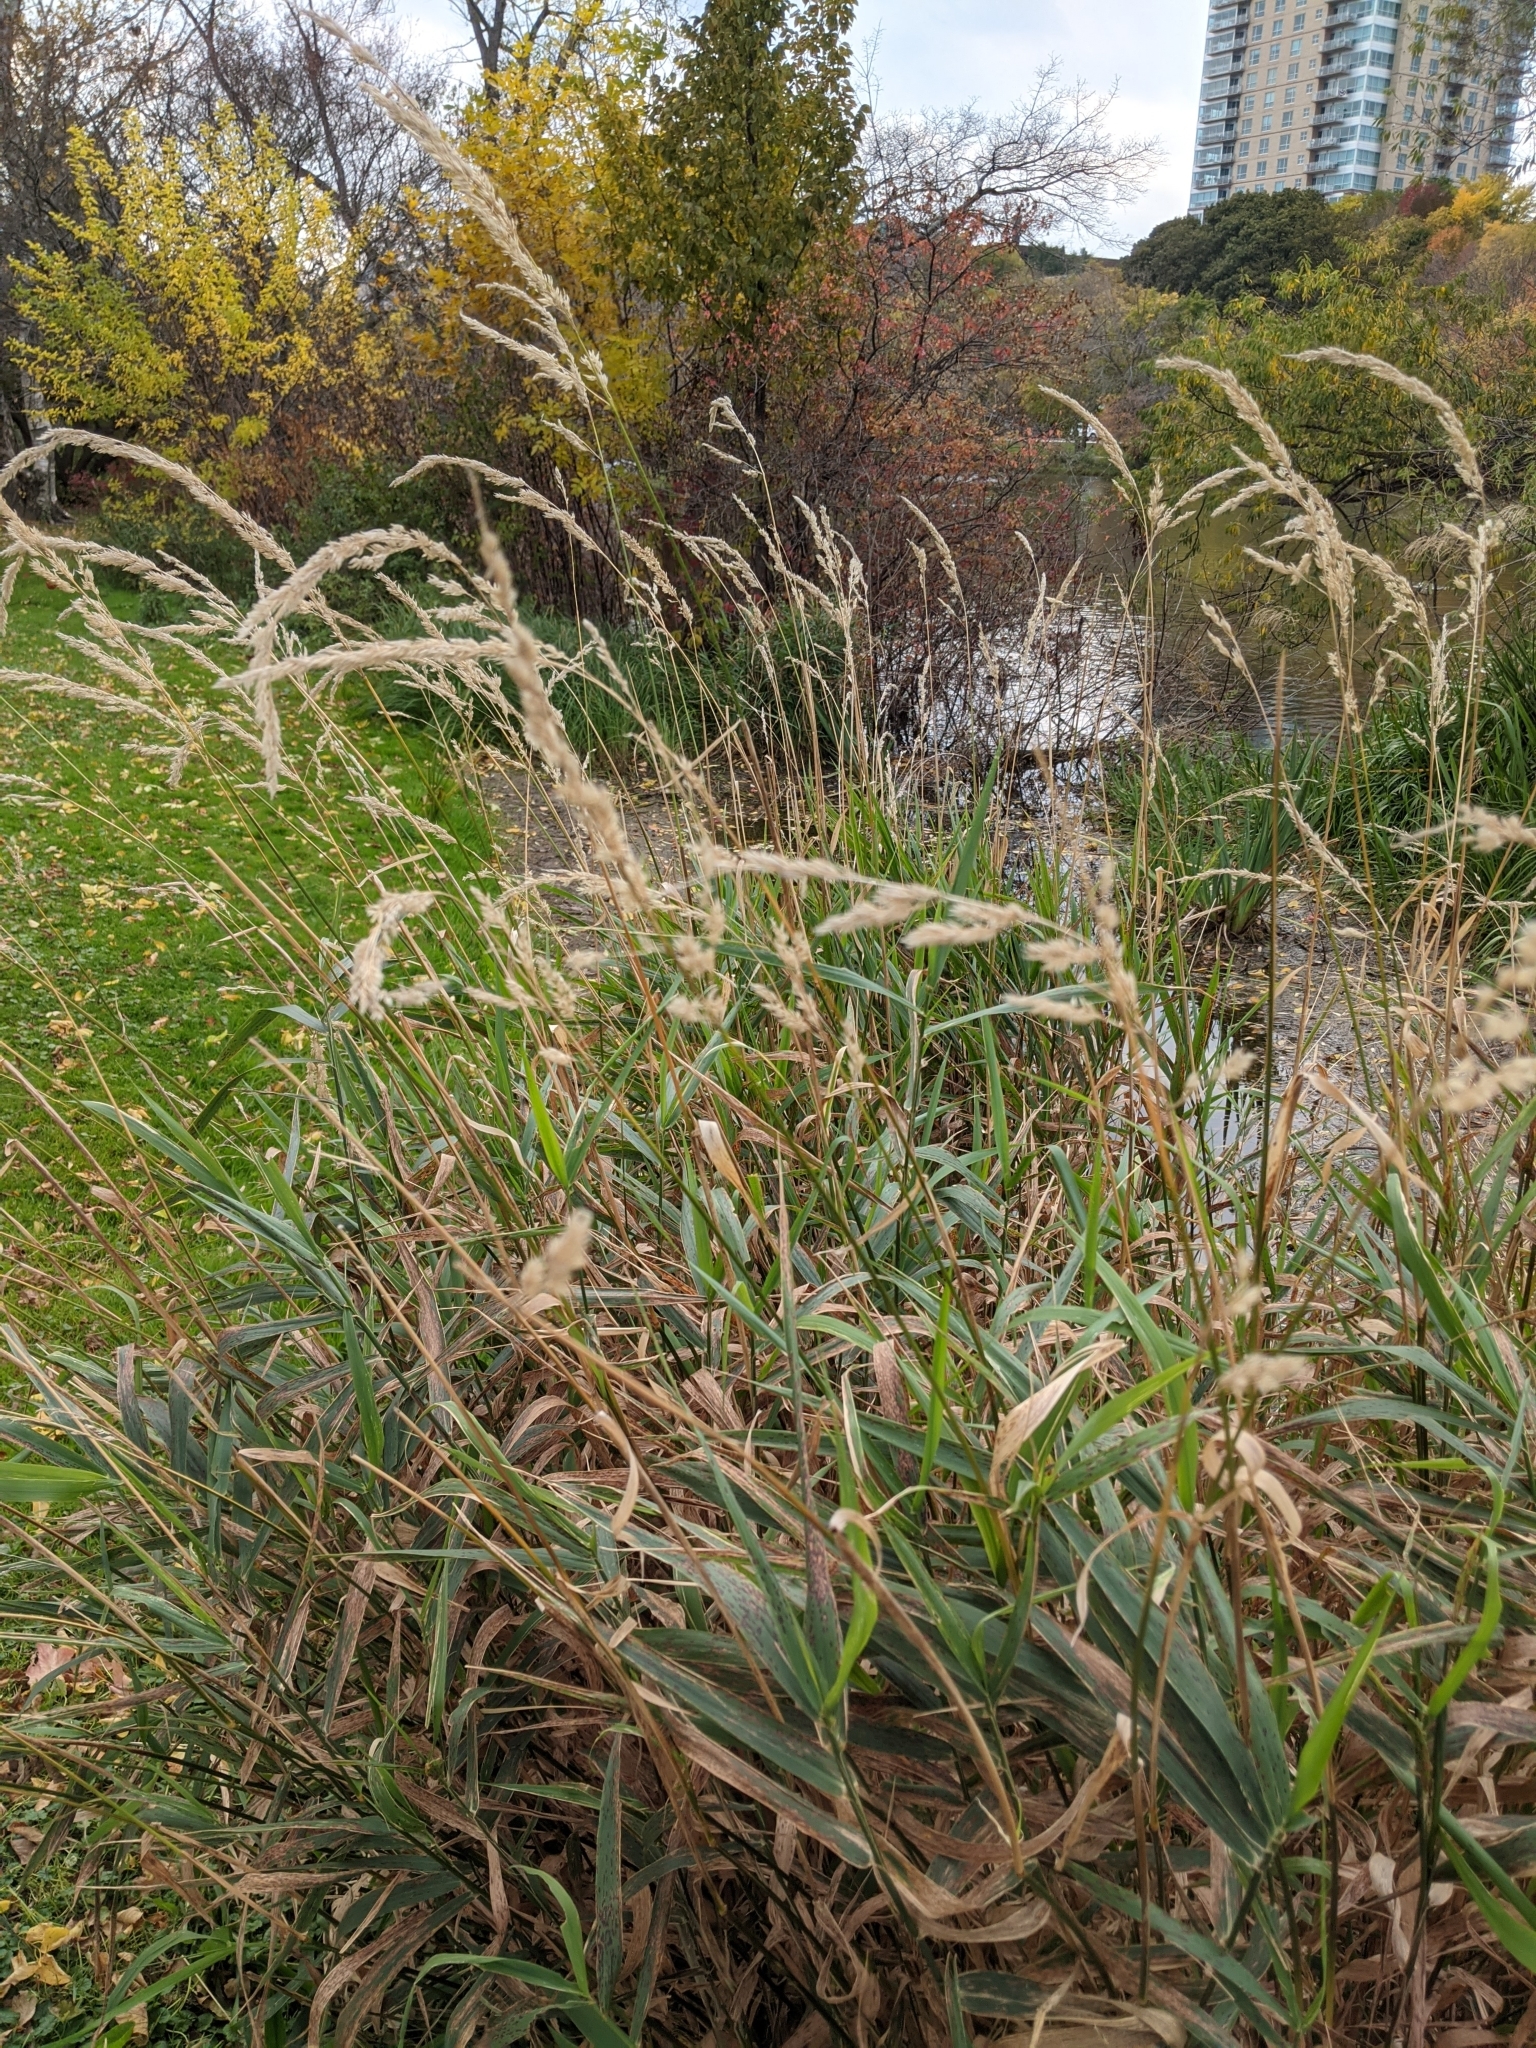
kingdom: Plantae
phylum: Tracheophyta
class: Liliopsida
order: Poales
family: Poaceae
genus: Phalaris
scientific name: Phalaris arundinacea
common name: Reed canary-grass
